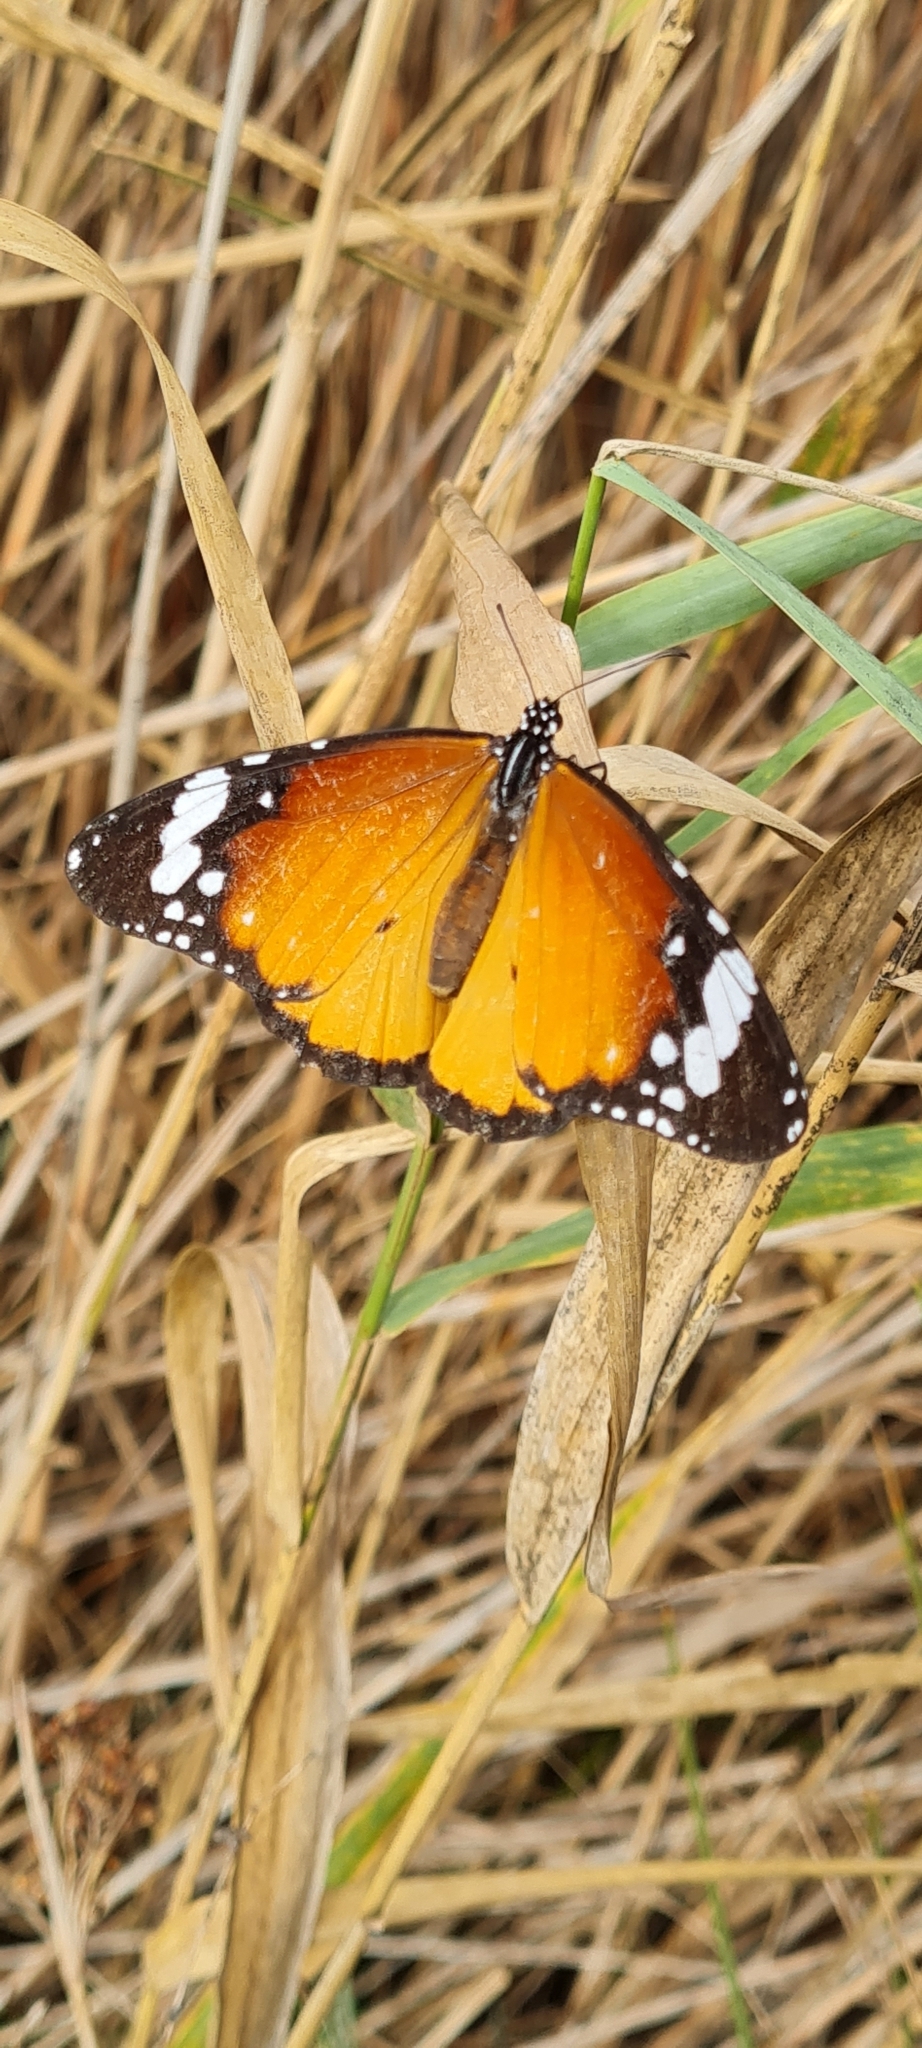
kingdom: Animalia
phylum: Arthropoda
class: Insecta
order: Lepidoptera
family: Nymphalidae
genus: Danaus
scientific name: Danaus chrysippus
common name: Plain tiger
